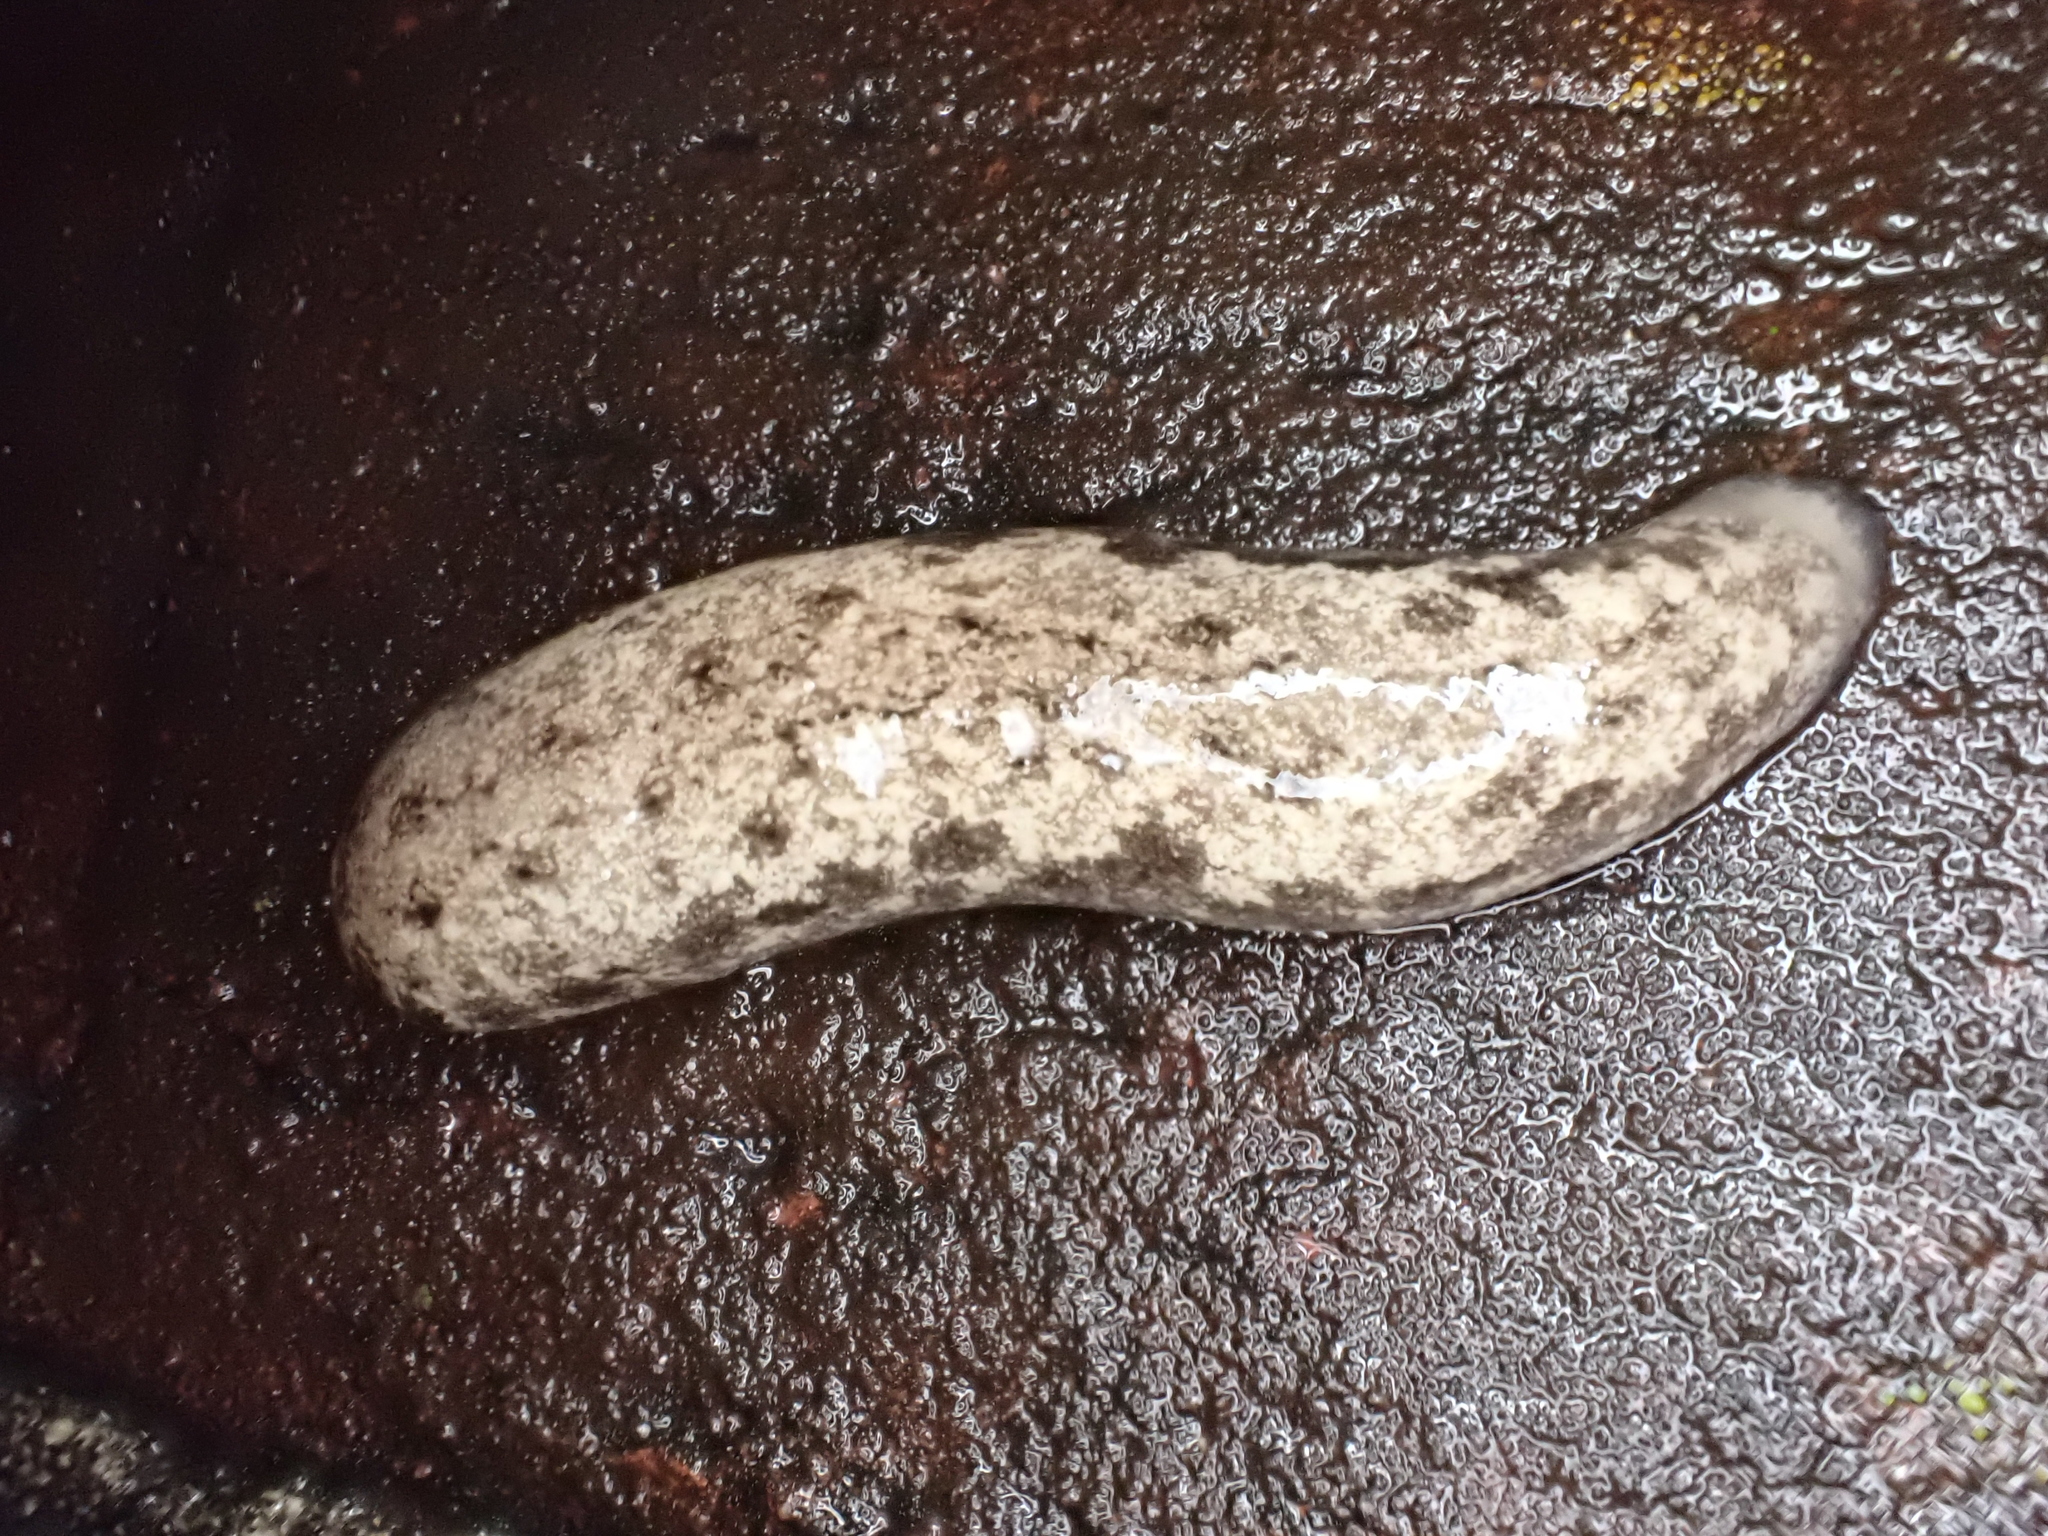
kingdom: Animalia
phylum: Mollusca
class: Gastropoda
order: Stylommatophora
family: Philomycidae
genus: Megapallifera
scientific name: Megapallifera mutabilis
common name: Changeable mantleslug
